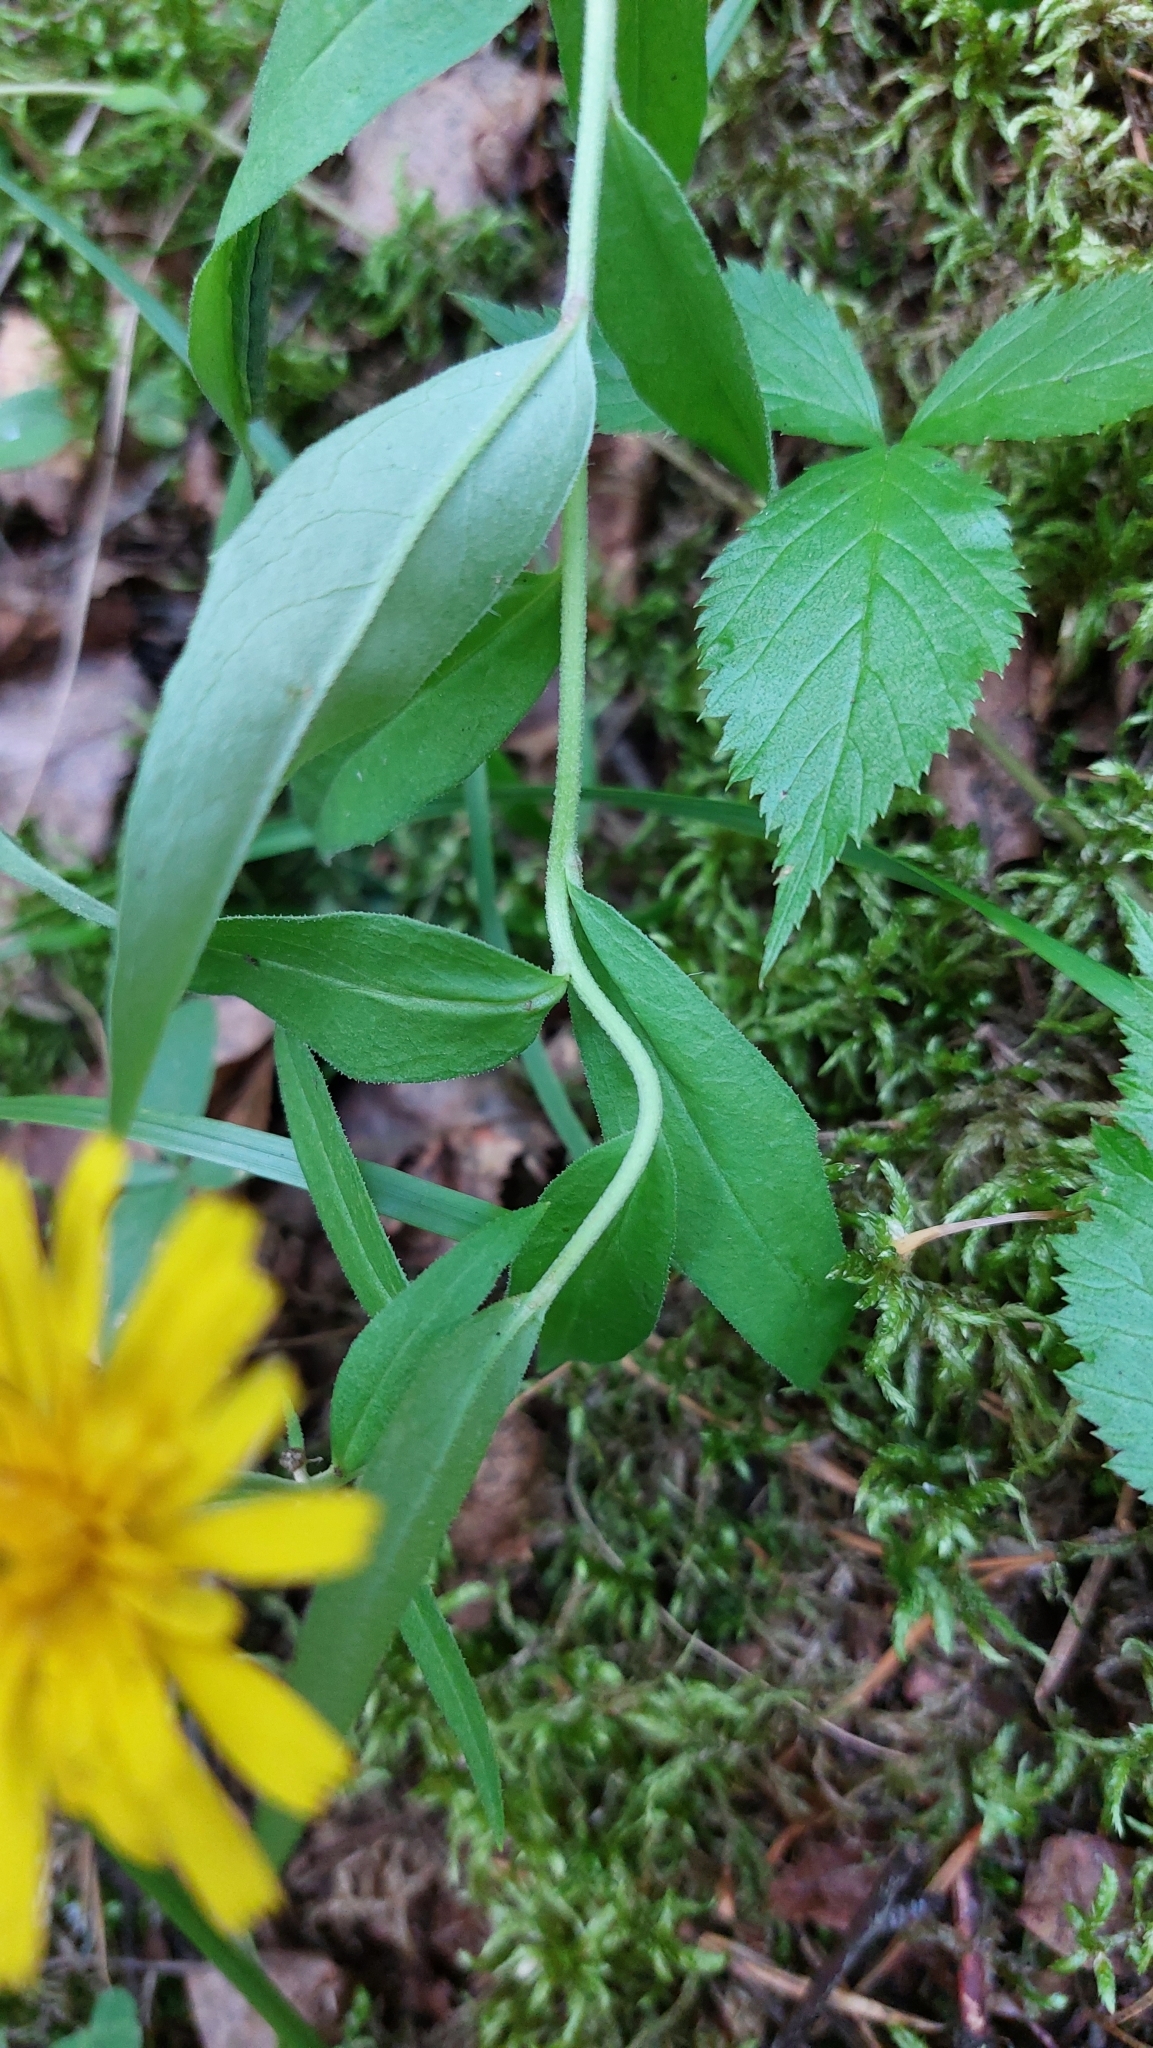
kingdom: Plantae
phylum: Tracheophyta
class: Magnoliopsida
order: Asterales
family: Asteraceae
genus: Hieracium
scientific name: Hieracium umbellatum
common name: Northern hawkweed
